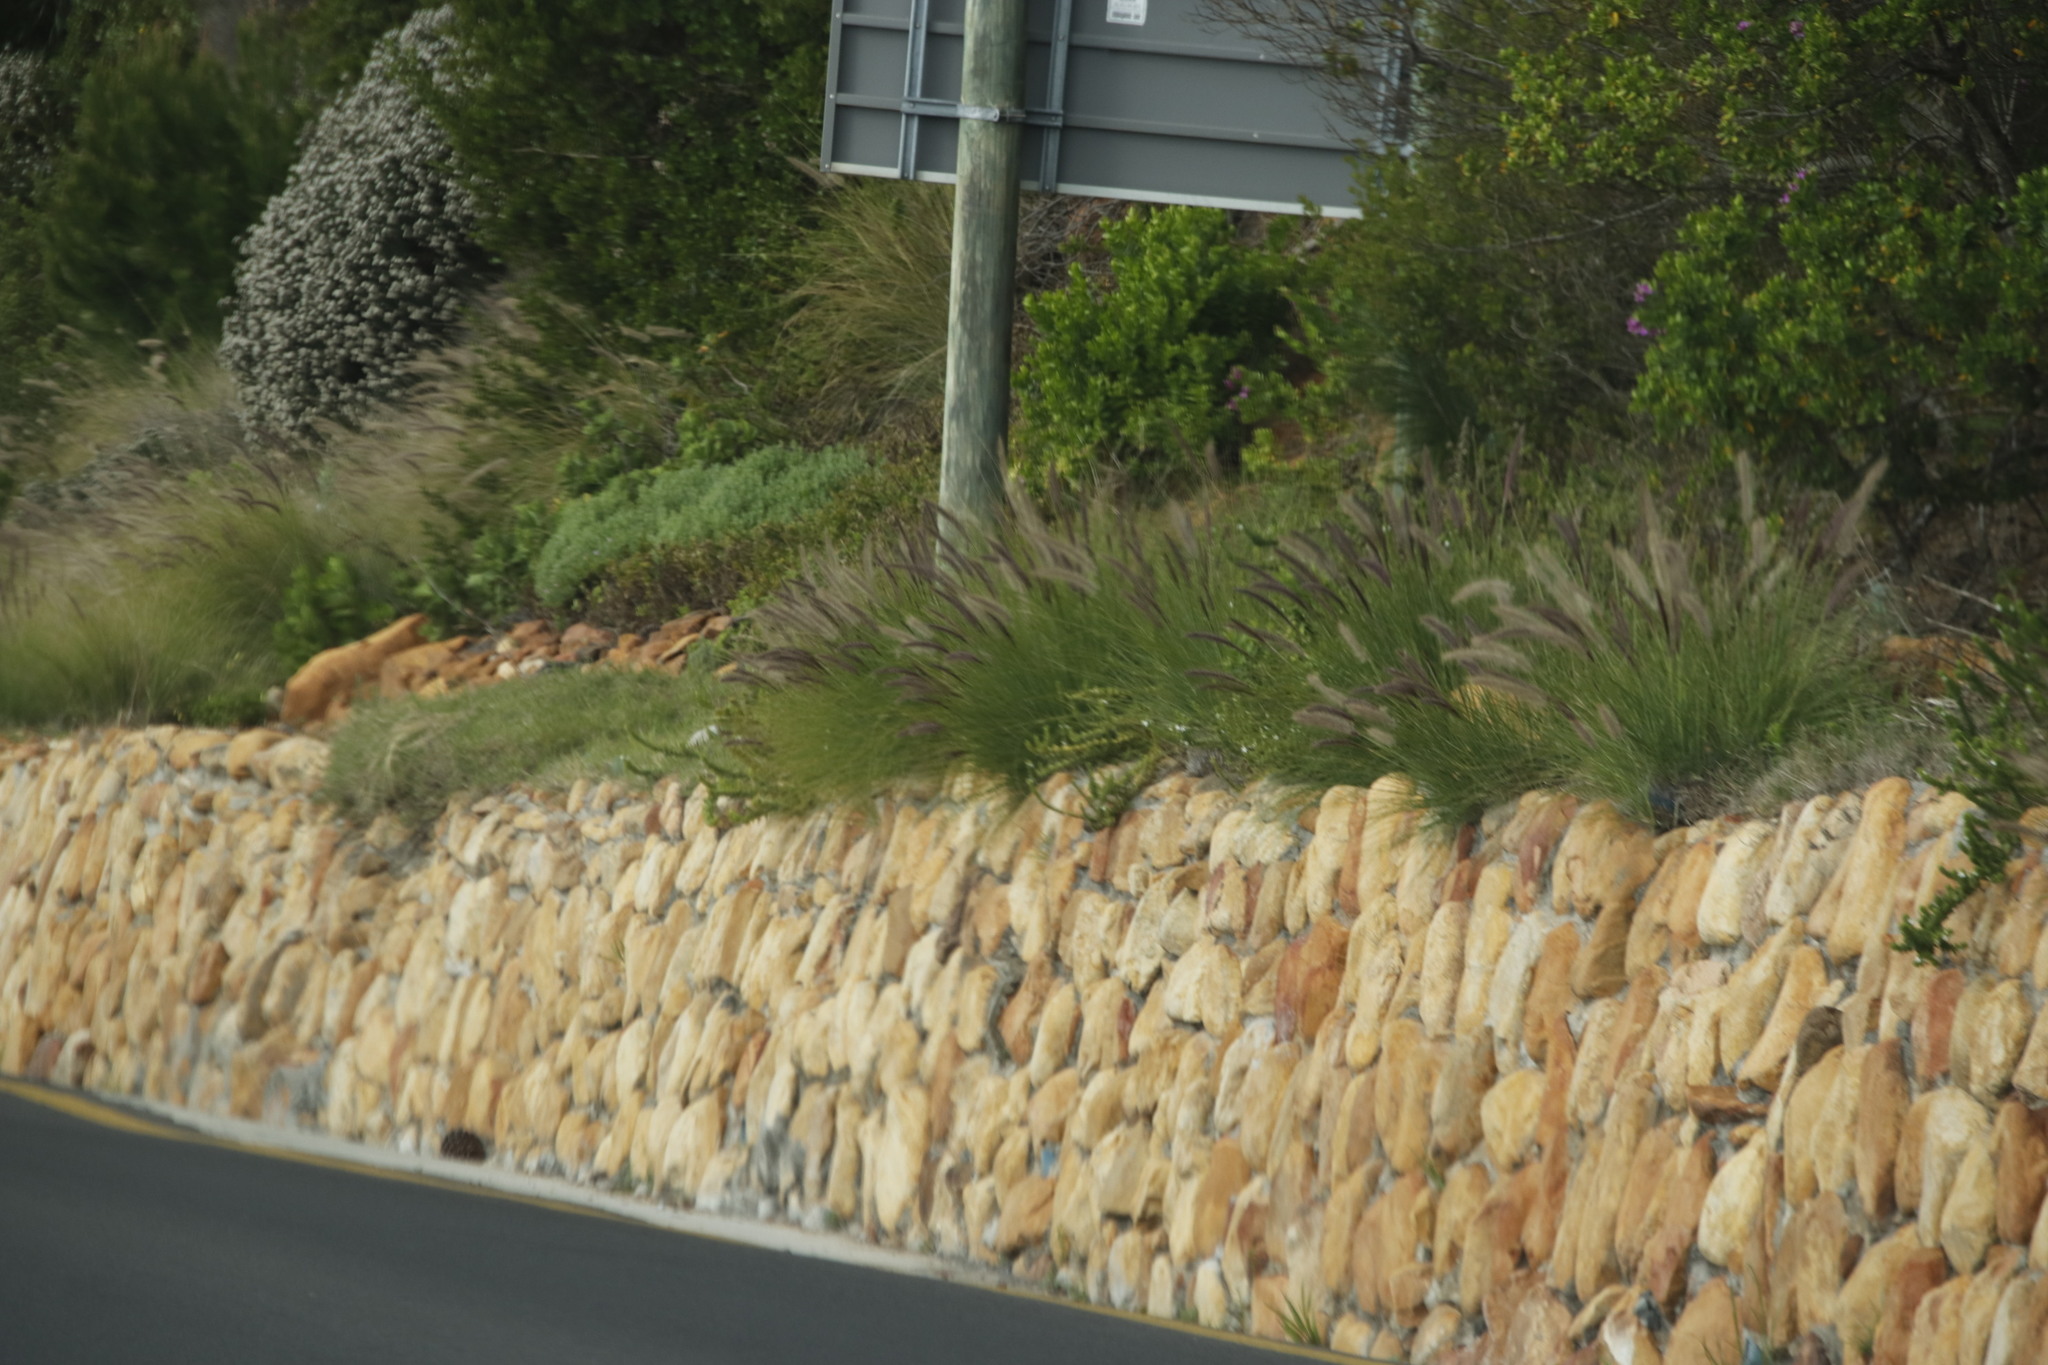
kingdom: Plantae
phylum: Tracheophyta
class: Liliopsida
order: Poales
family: Poaceae
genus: Cenchrus
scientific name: Cenchrus setaceus
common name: Crimson fountaingrass
